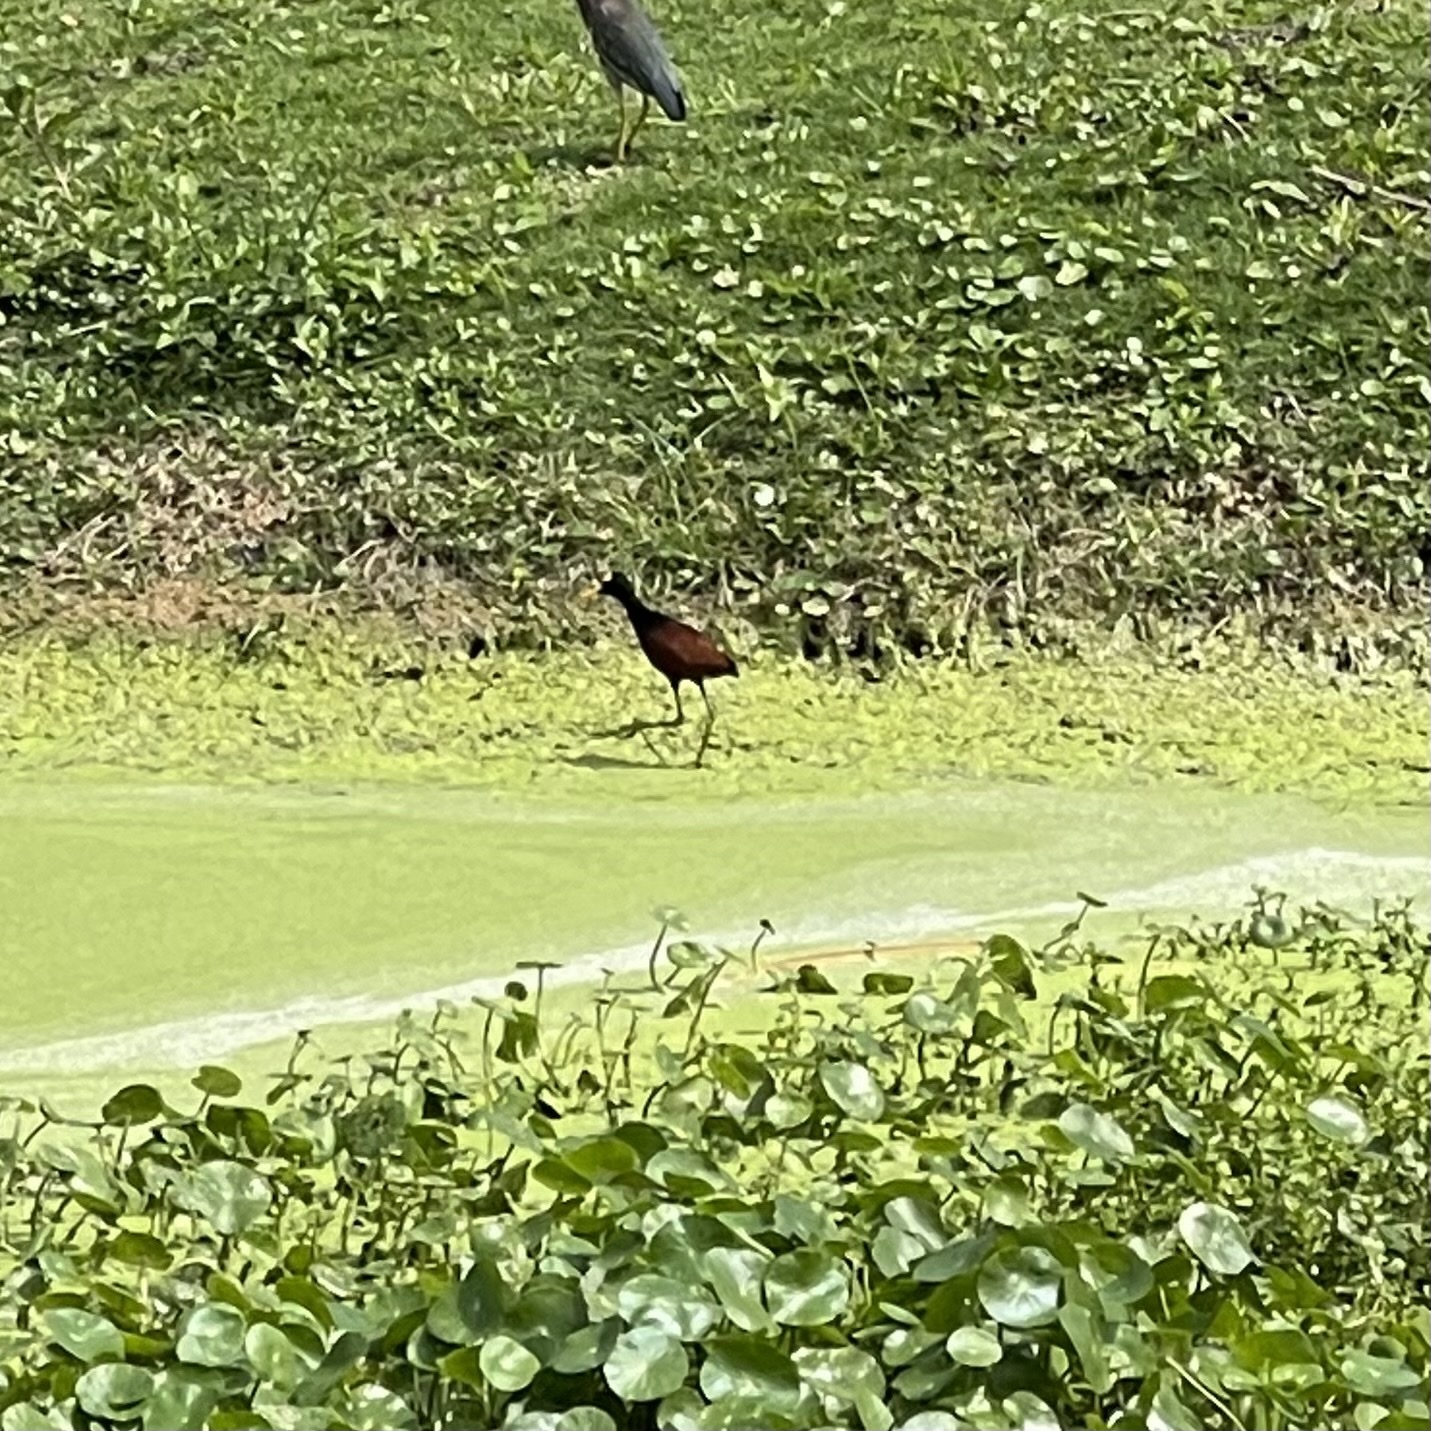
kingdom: Animalia
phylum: Chordata
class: Aves
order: Charadriiformes
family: Jacanidae
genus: Jacana
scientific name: Jacana spinosa
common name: Northern jacana
